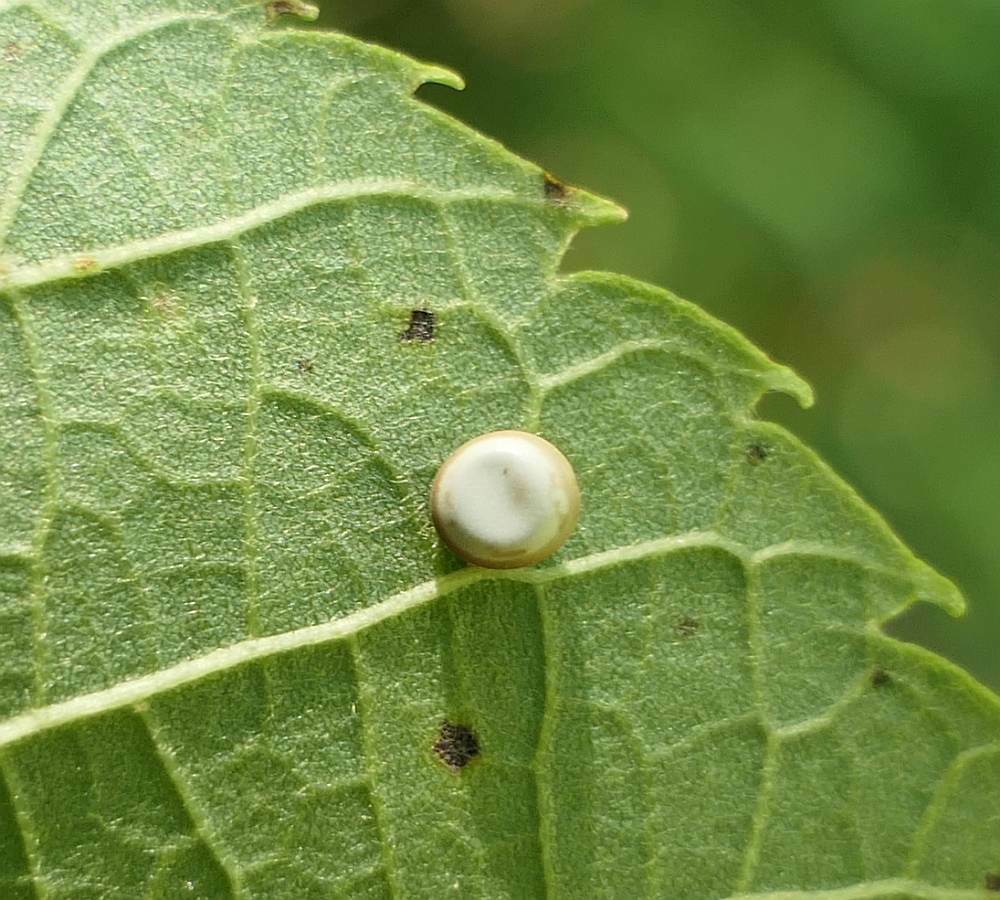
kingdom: Animalia
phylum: Arthropoda
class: Insecta
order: Lepidoptera
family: Saturniidae
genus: Antheraea
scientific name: Antheraea polyphemus
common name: Polyphemus moth
